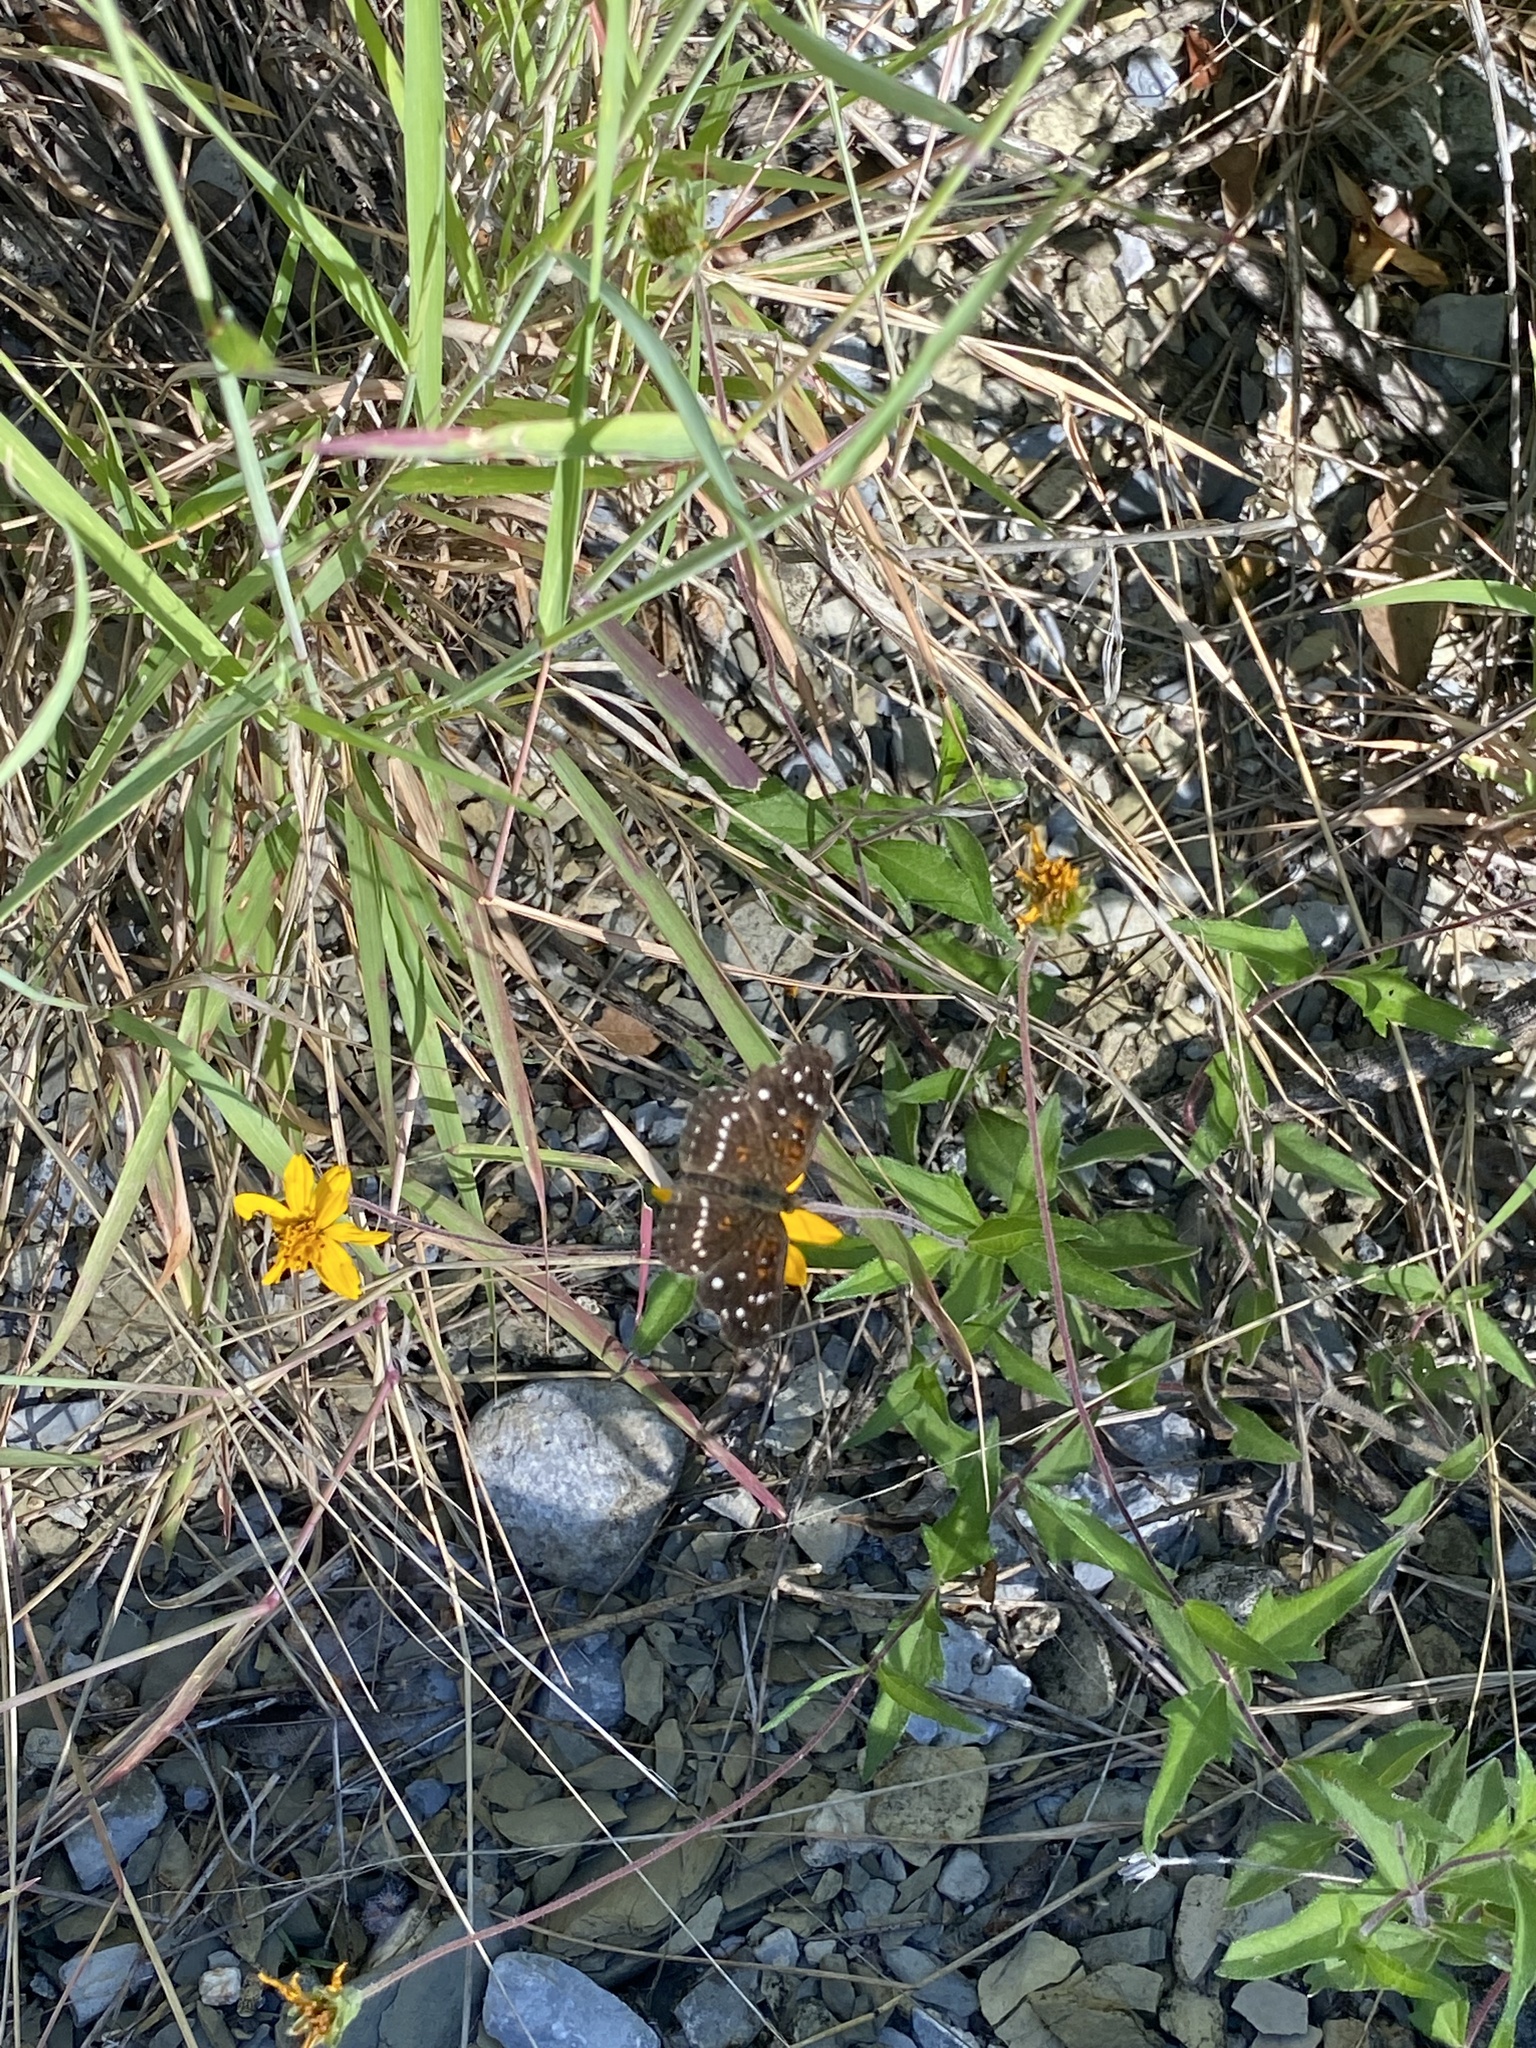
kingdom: Animalia
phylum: Arthropoda
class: Insecta
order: Lepidoptera
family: Nymphalidae
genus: Anthanassa
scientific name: Anthanassa texana
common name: Texan crescent
